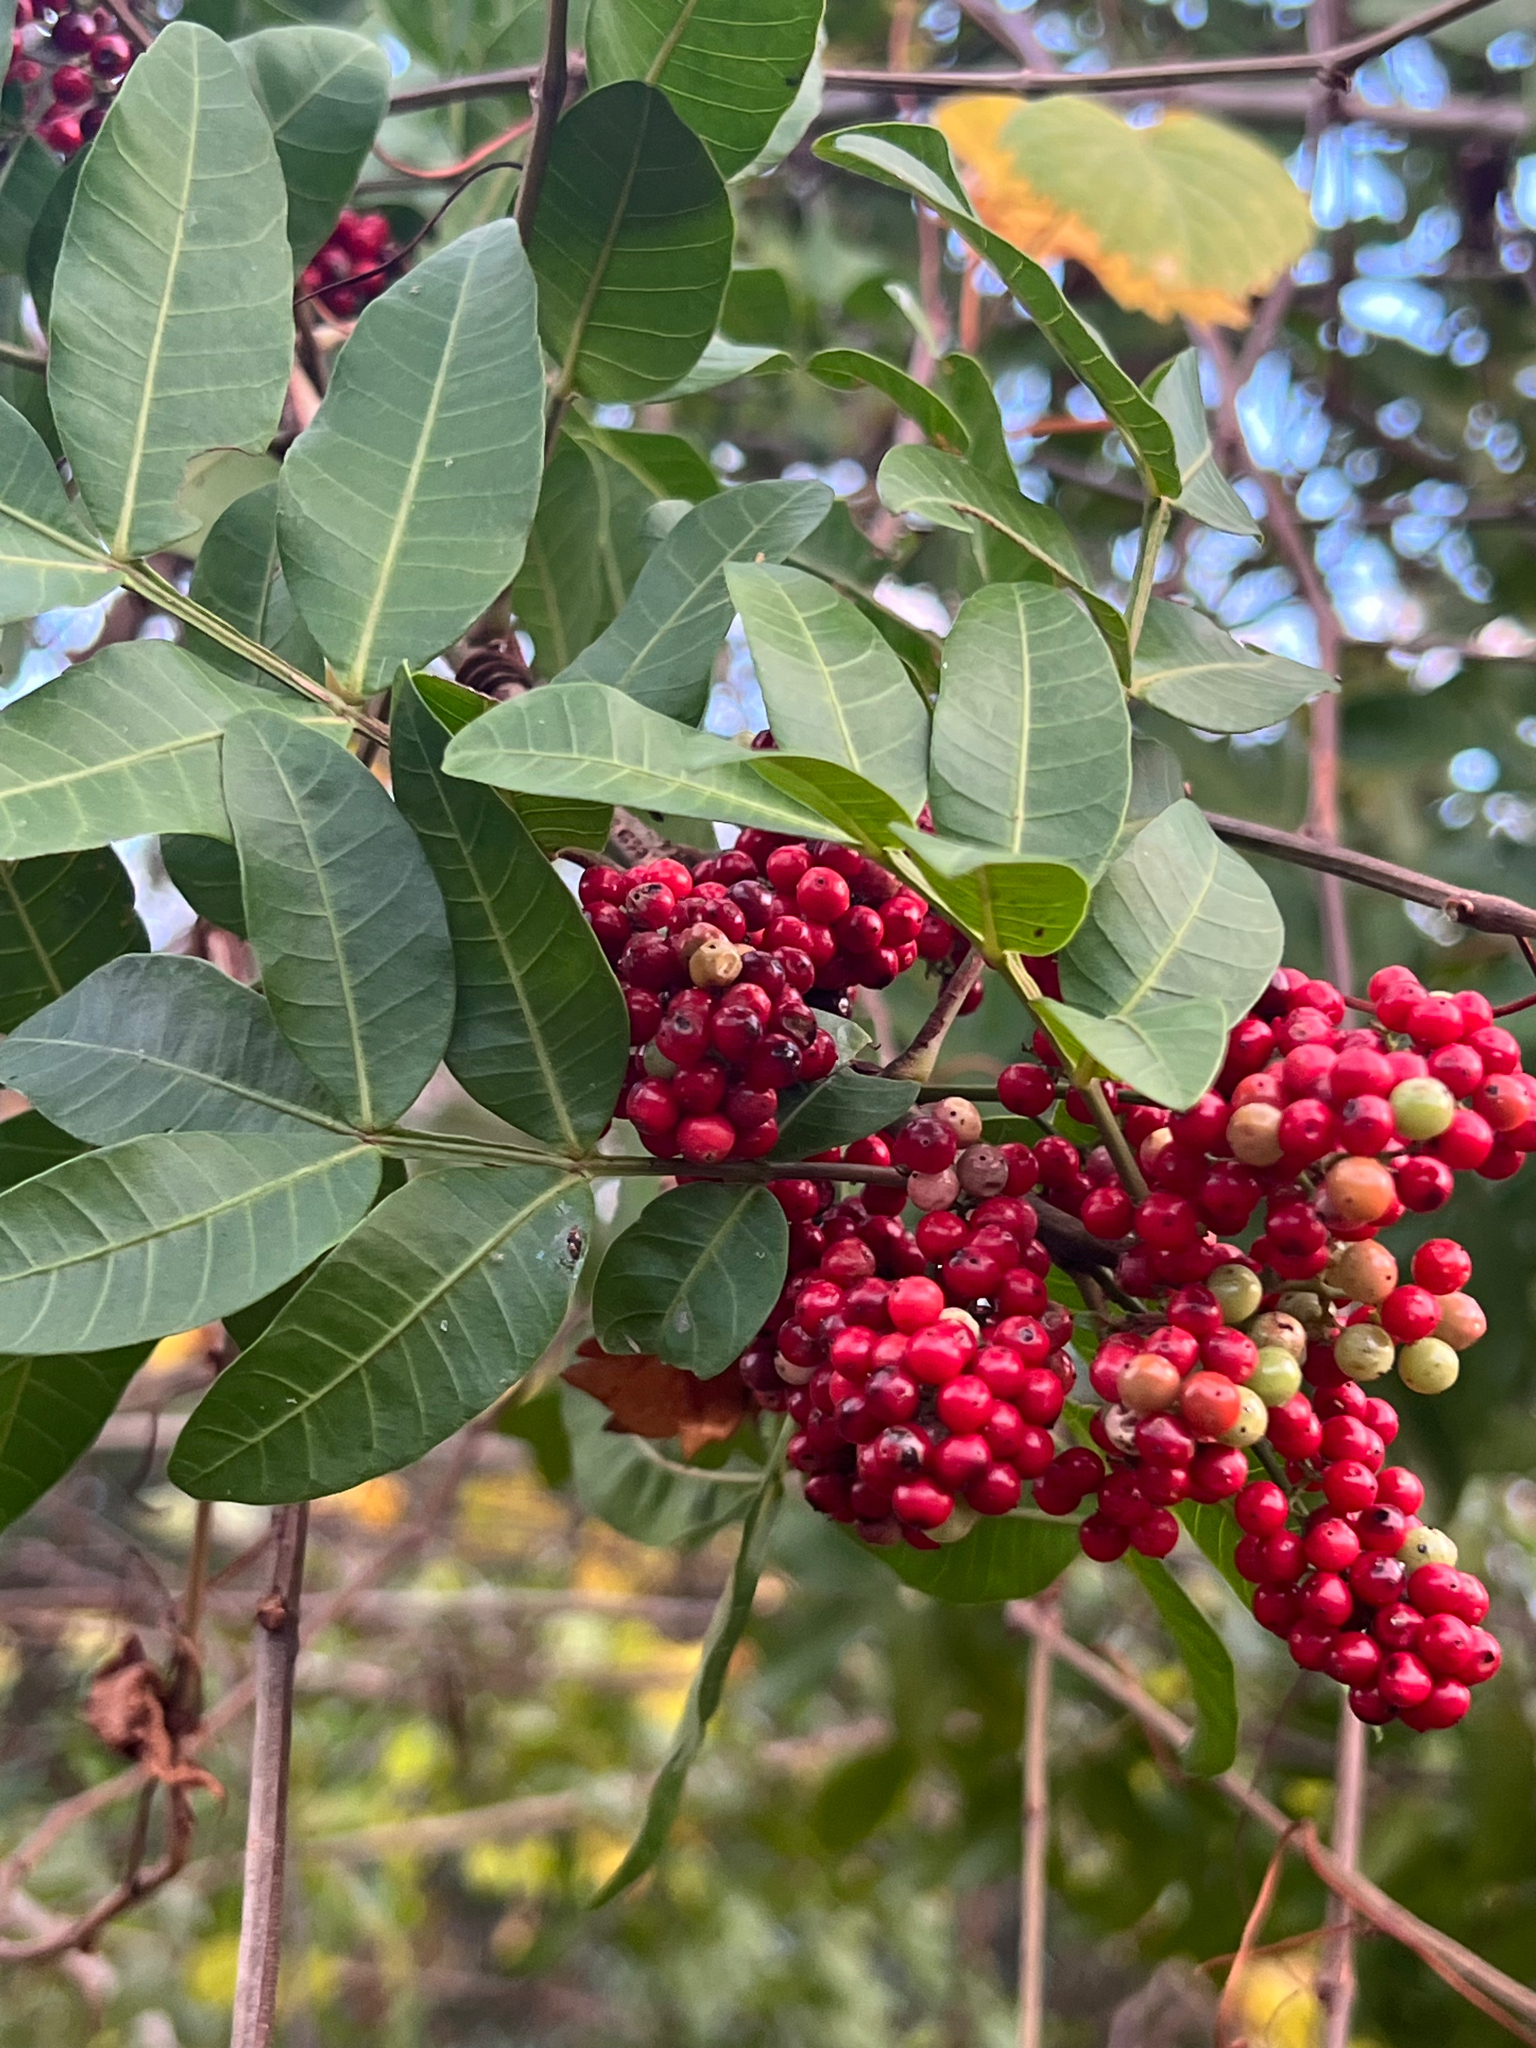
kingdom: Plantae
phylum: Tracheophyta
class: Magnoliopsida
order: Sapindales
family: Anacardiaceae
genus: Schinus
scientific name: Schinus terebinthifolia
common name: Brazilian peppertree
